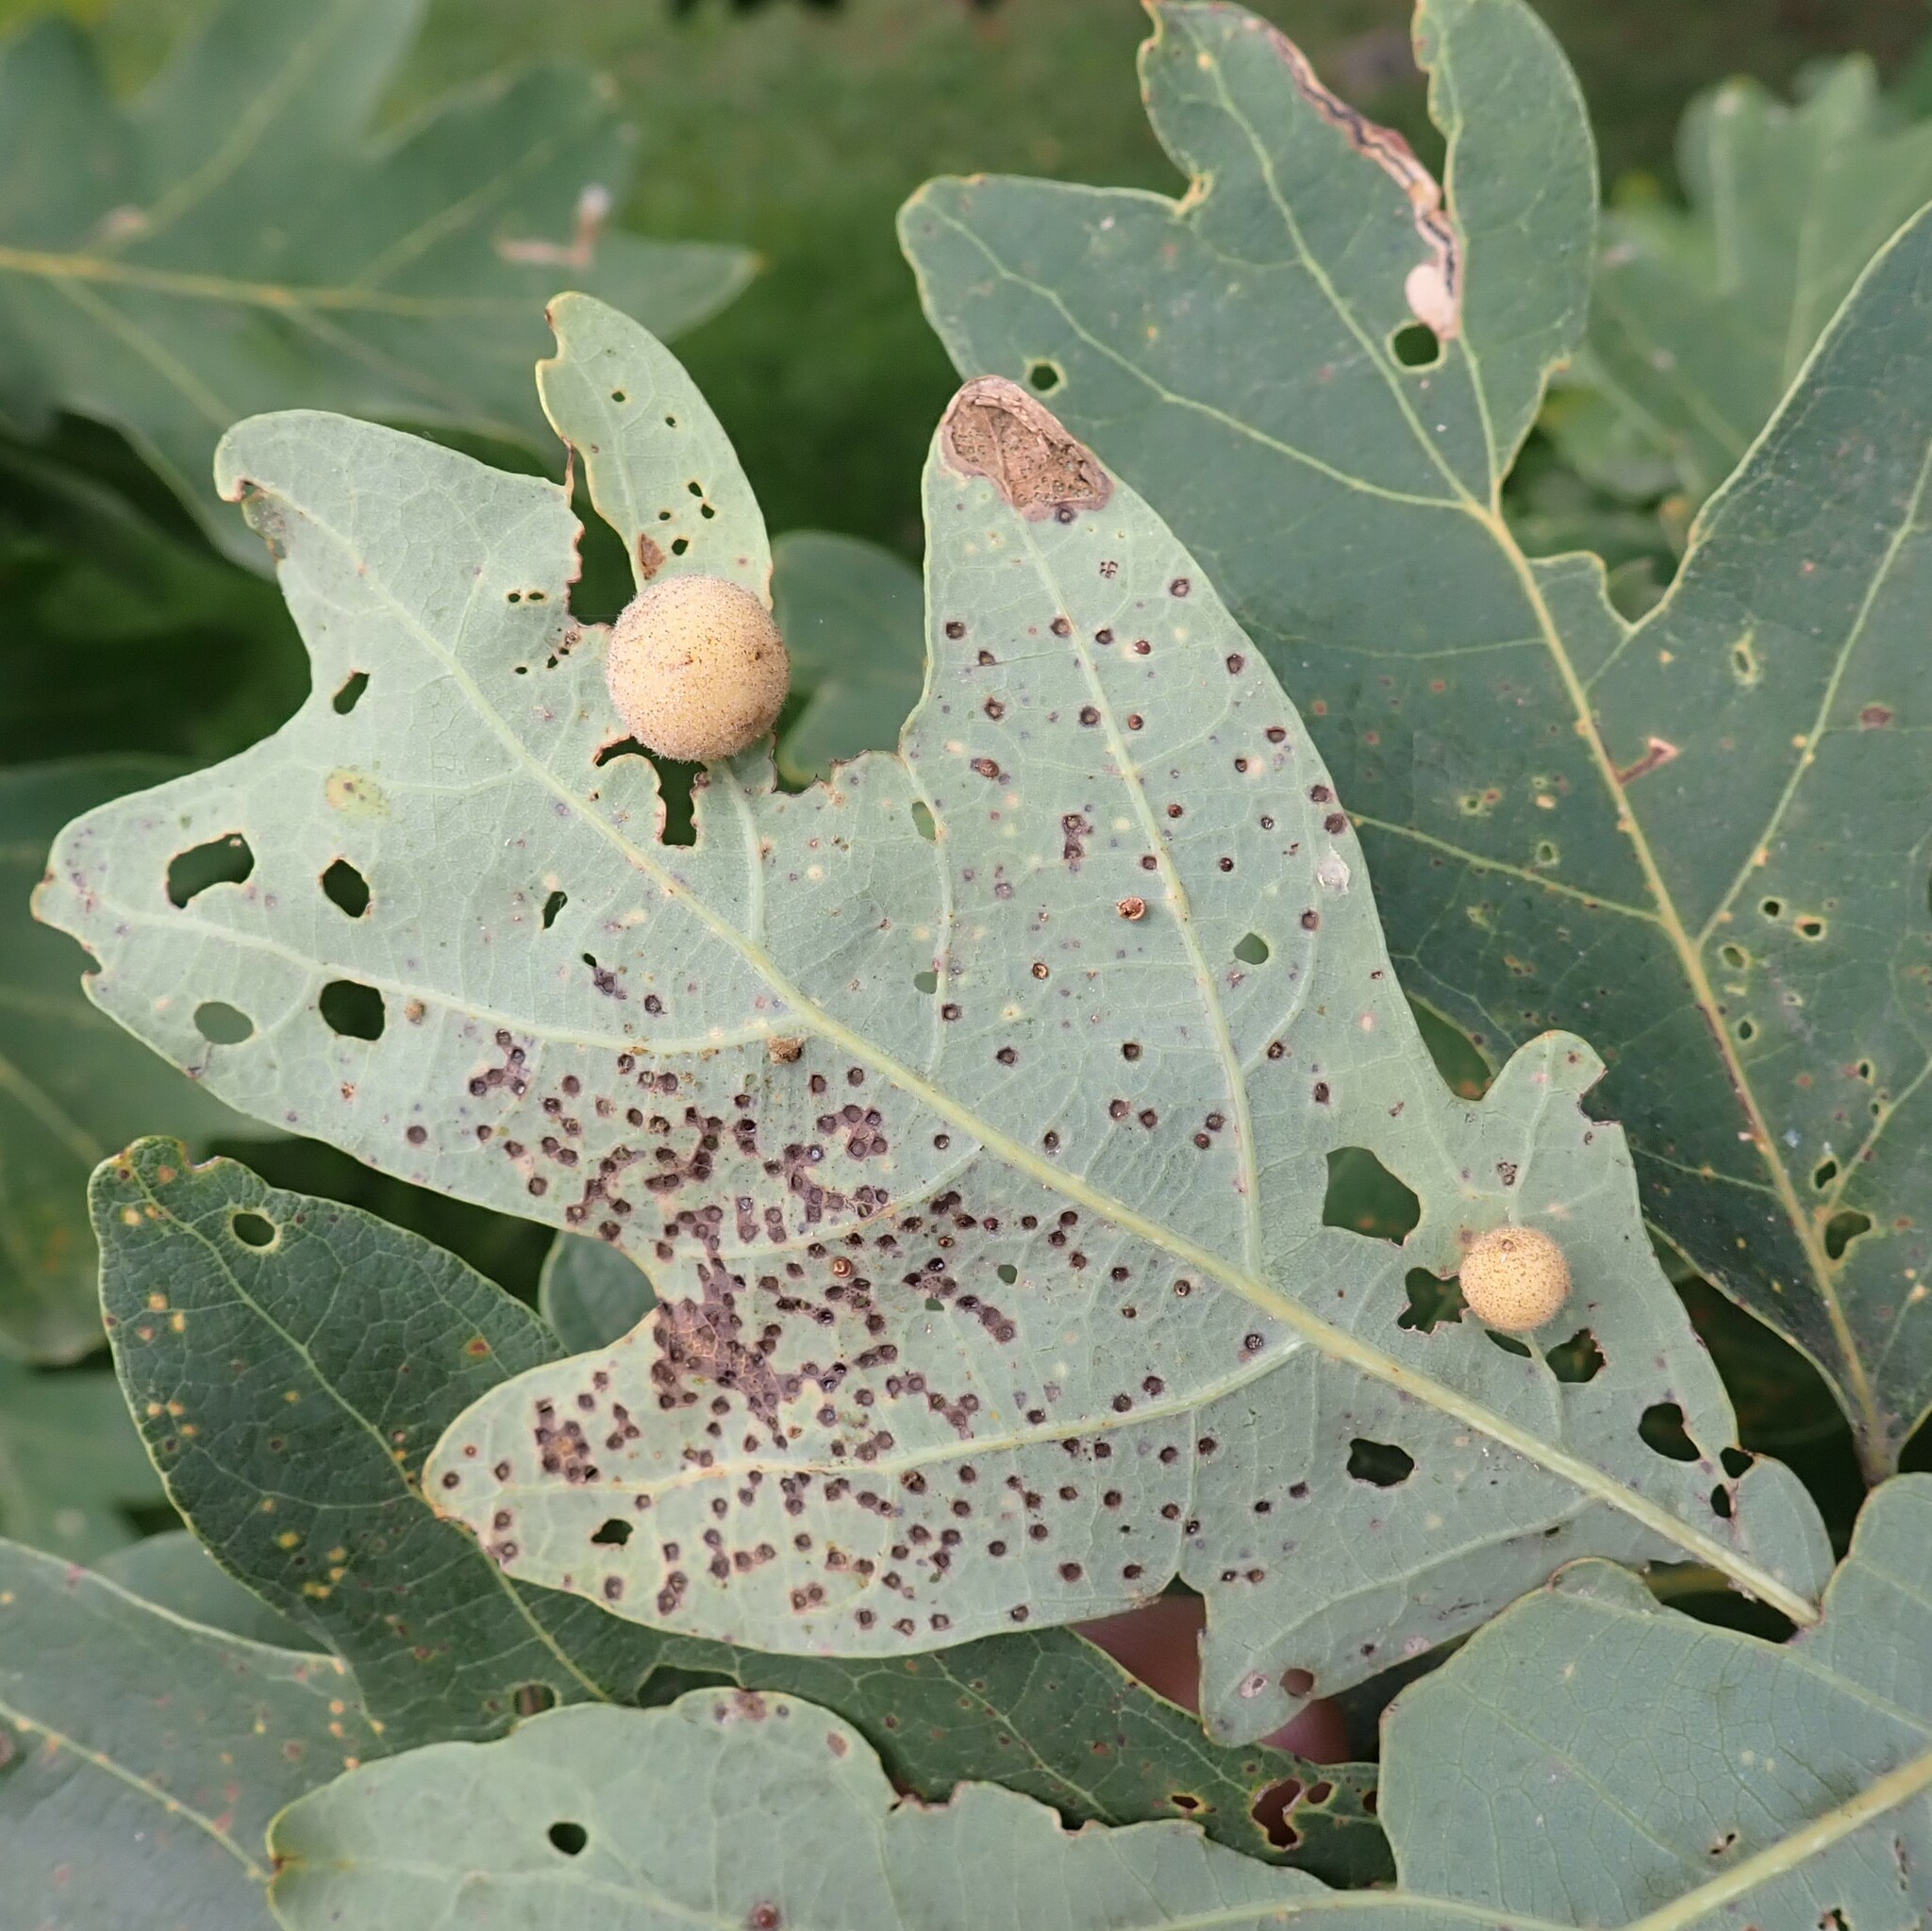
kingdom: Animalia
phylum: Arthropoda
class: Insecta
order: Hymenoptera
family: Cynipidae
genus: Philonix
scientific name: Philonix fulvicollis
